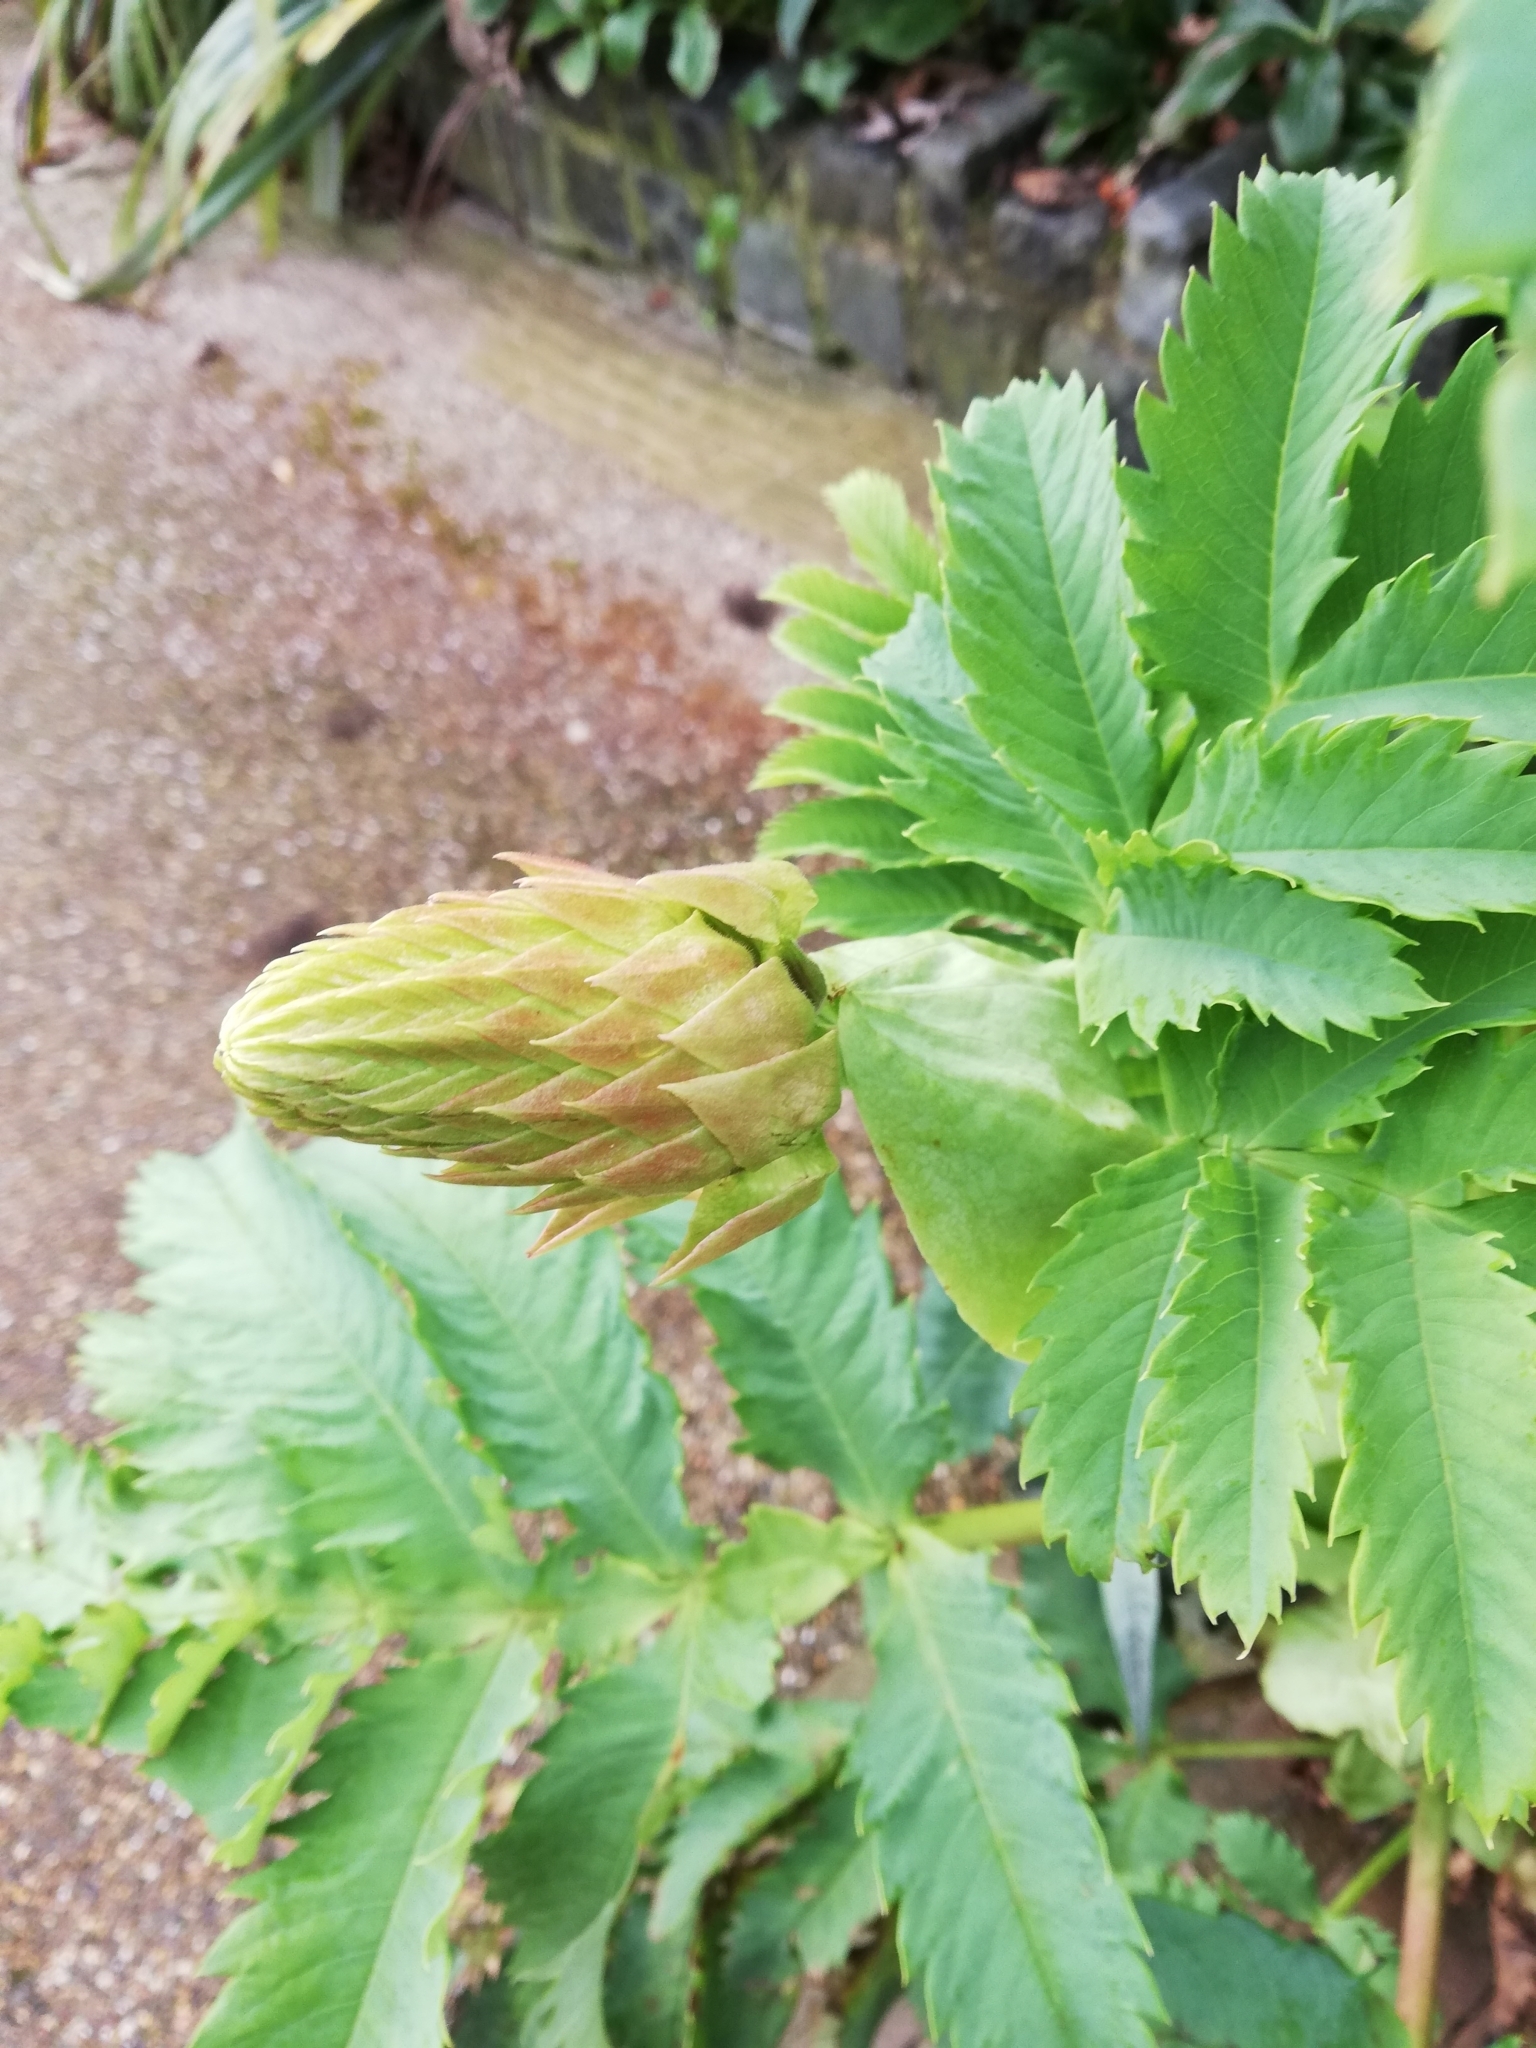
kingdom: Plantae
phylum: Tracheophyta
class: Magnoliopsida
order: Geraniales
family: Melianthaceae
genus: Melianthus
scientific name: Melianthus major
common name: Honey-flower
